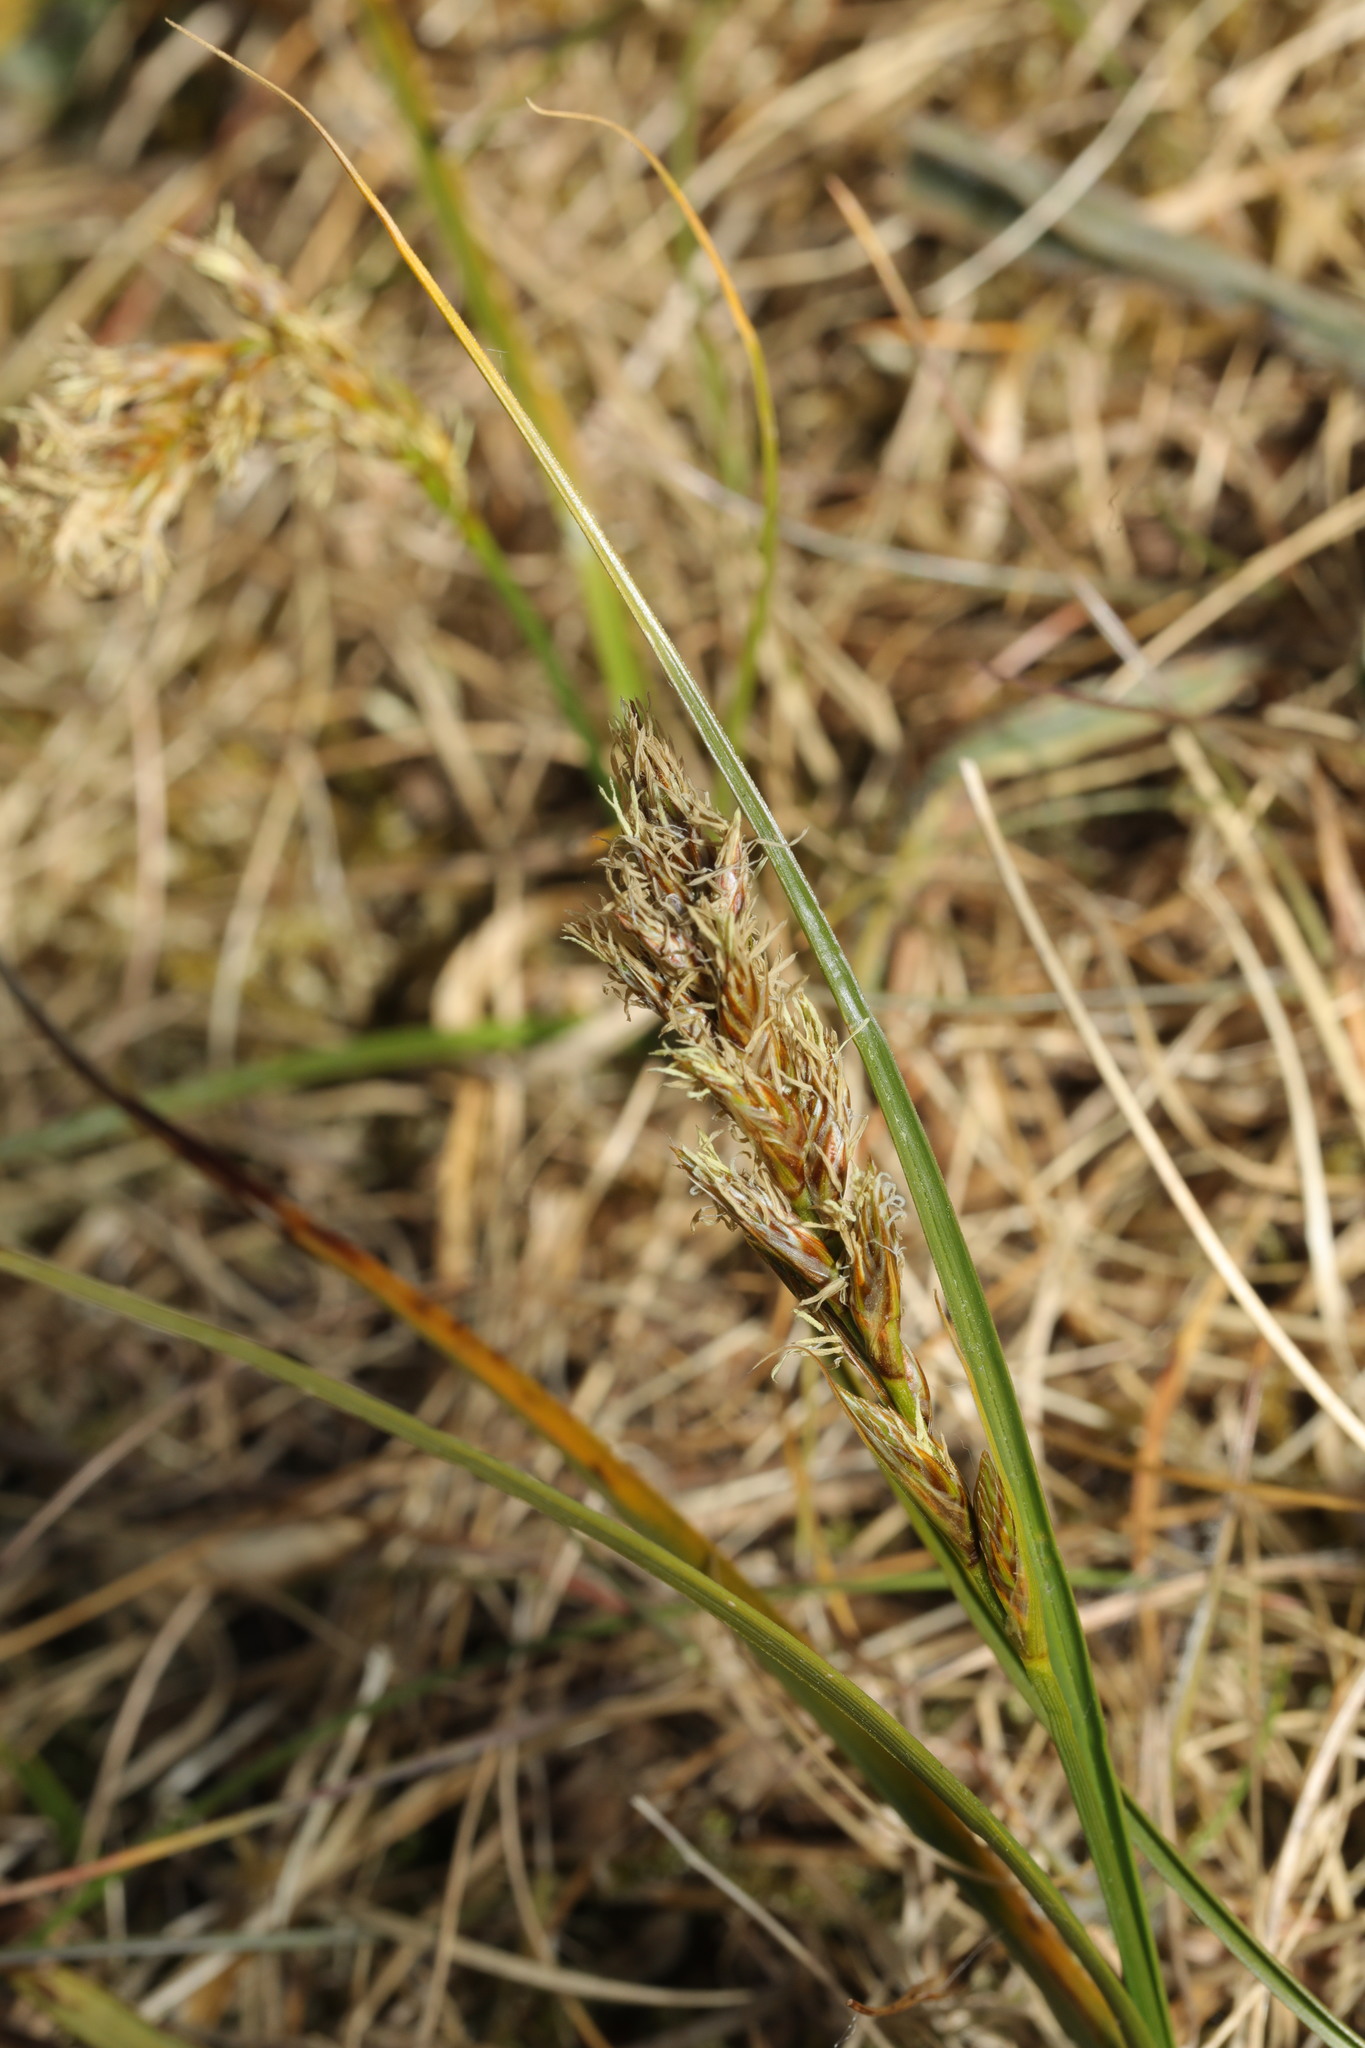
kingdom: Plantae
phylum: Tracheophyta
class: Liliopsida
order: Poales
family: Cyperaceae
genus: Carex
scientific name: Carex arenaria
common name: Sand sedge
